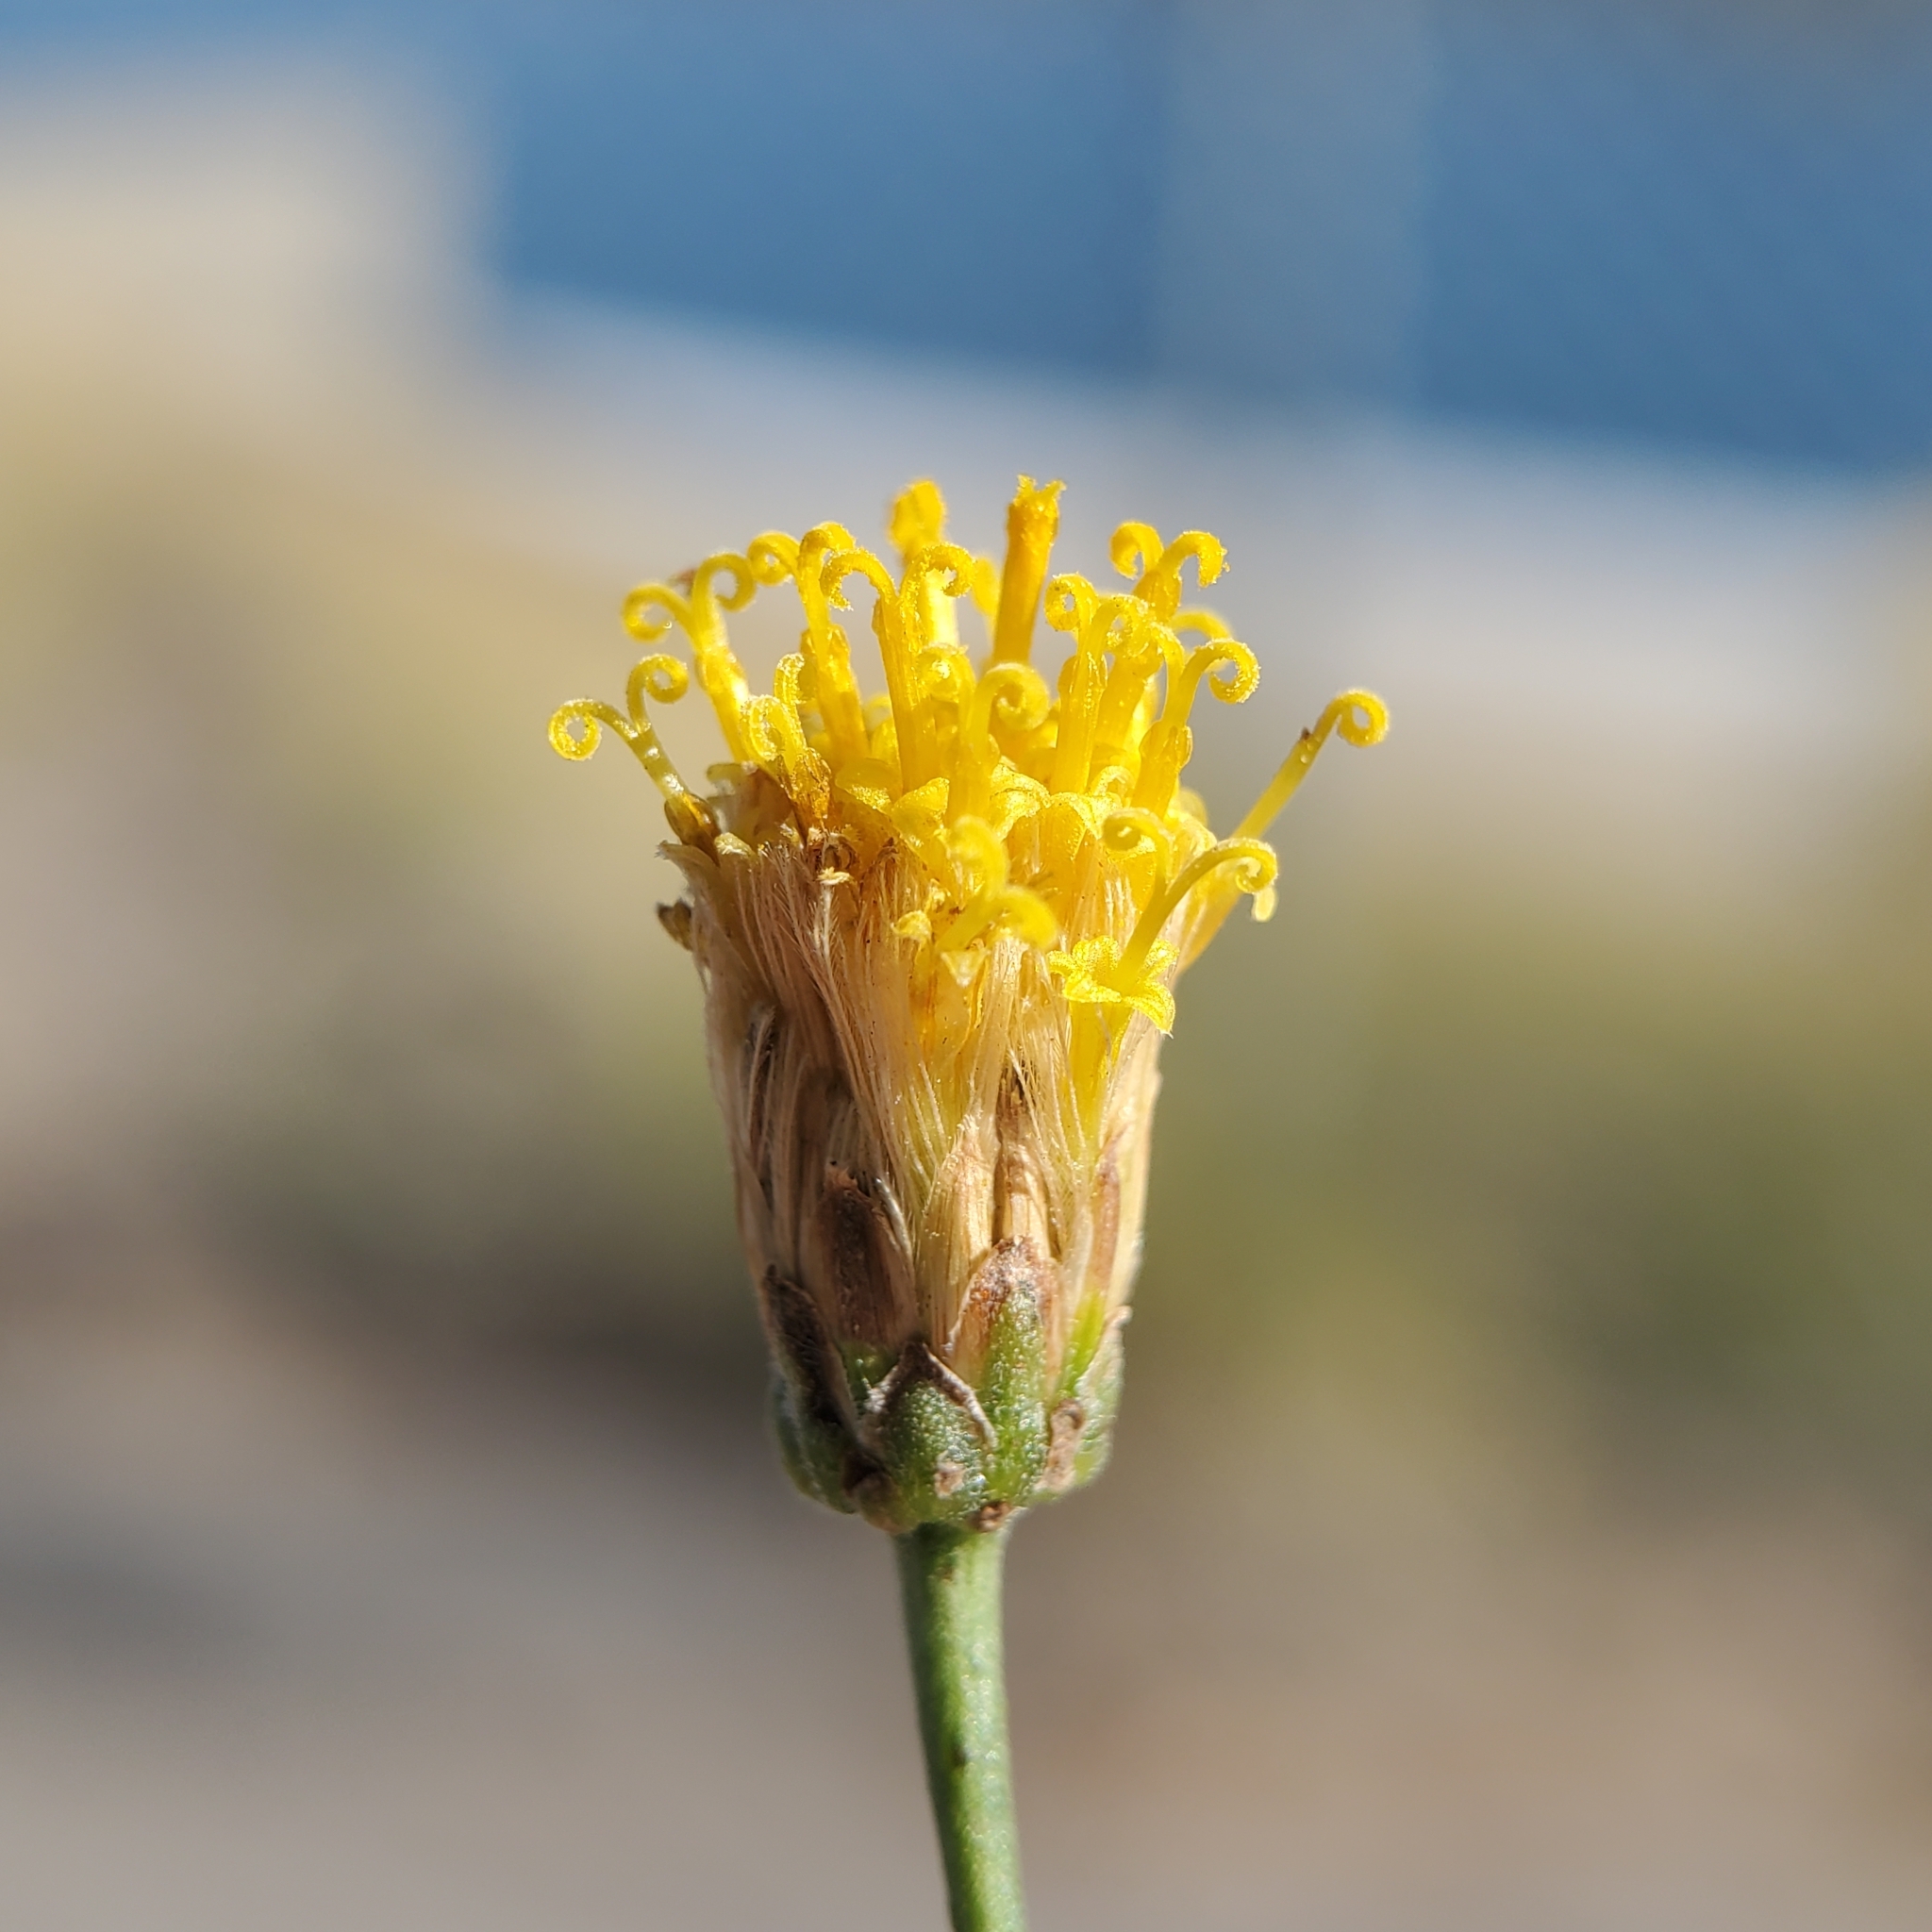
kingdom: Plantae
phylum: Tracheophyta
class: Magnoliopsida
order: Asterales
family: Asteraceae
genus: Bebbia
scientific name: Bebbia juncea
